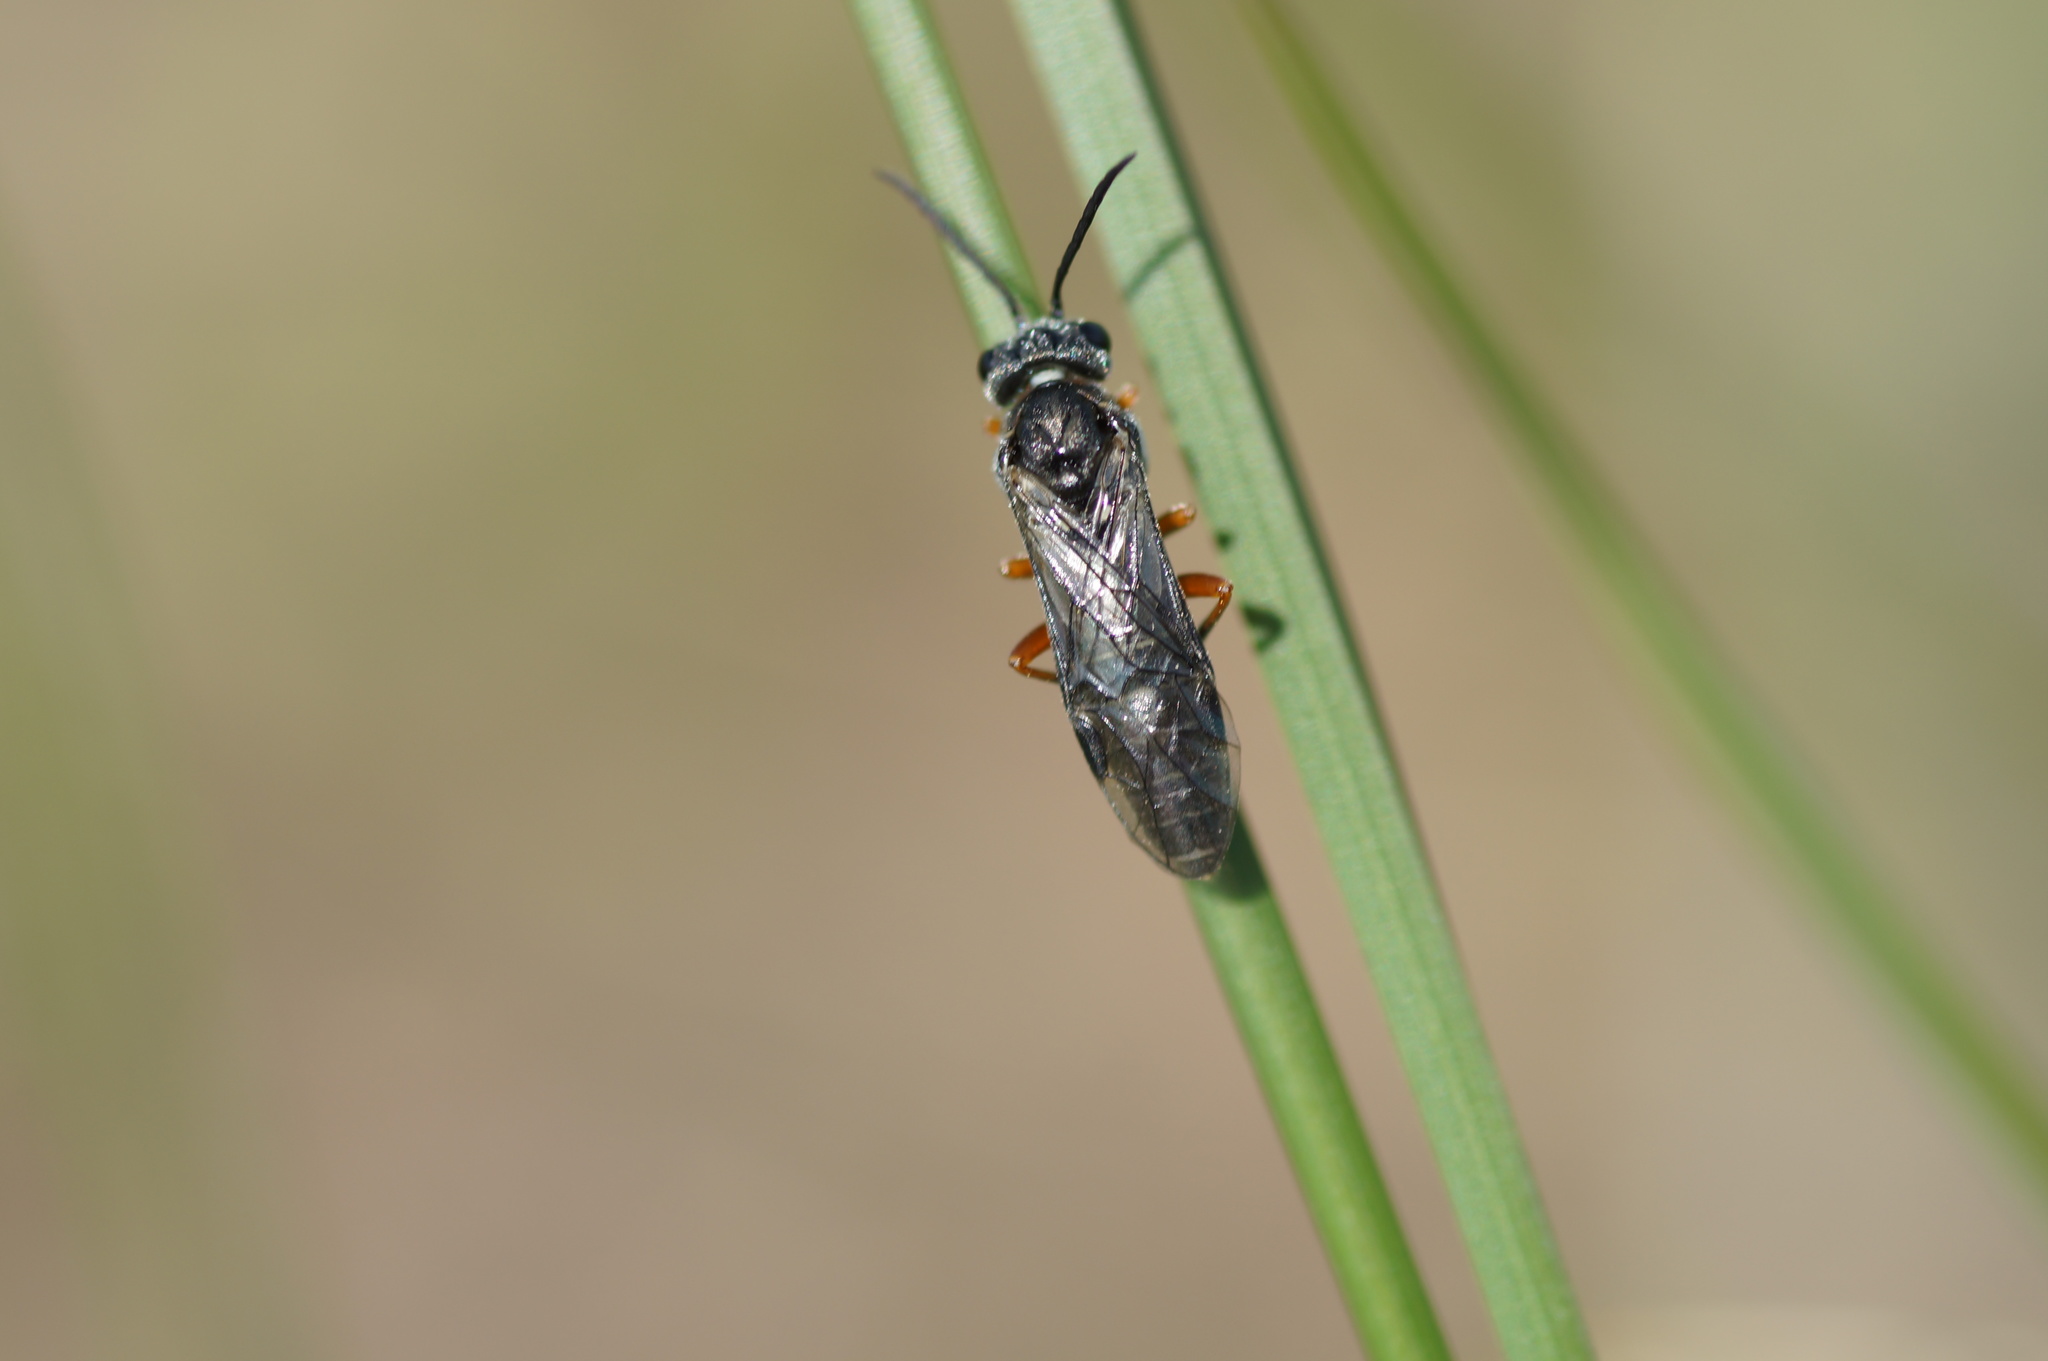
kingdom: Animalia
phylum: Arthropoda
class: Insecta
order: Hymenoptera
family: Tenthredinidae
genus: Dolerus
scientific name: Dolerus vestigialis
